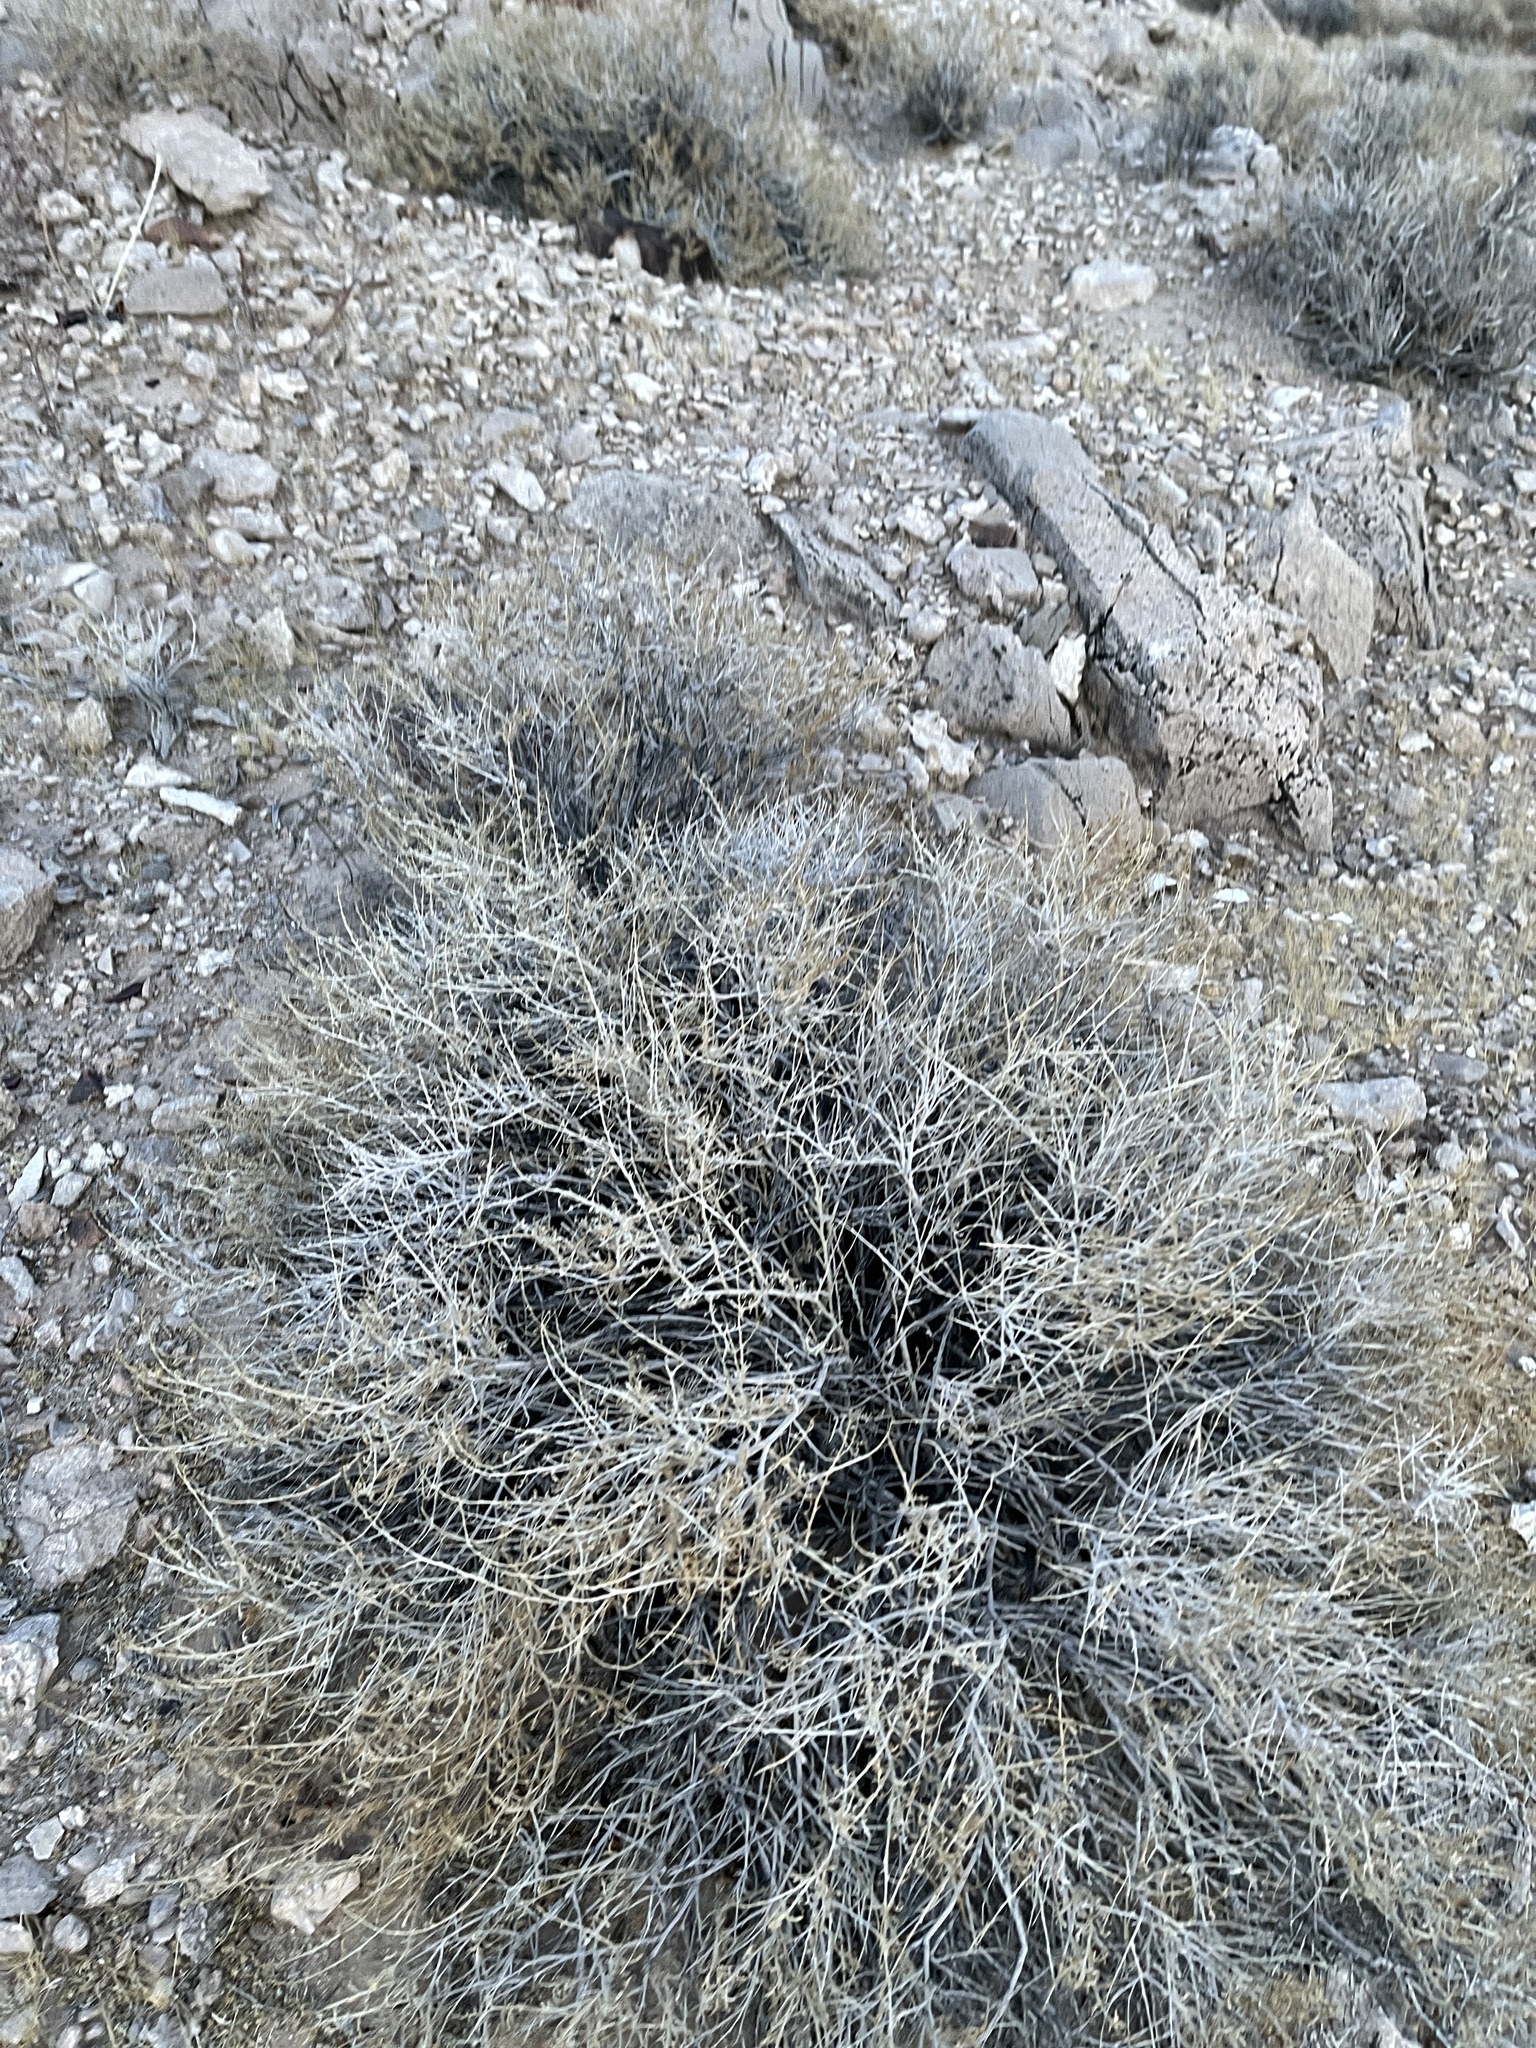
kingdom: Plantae
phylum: Tracheophyta
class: Magnoliopsida
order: Asterales
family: Asteraceae
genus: Ambrosia
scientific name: Ambrosia dumosa
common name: Bur-sage
